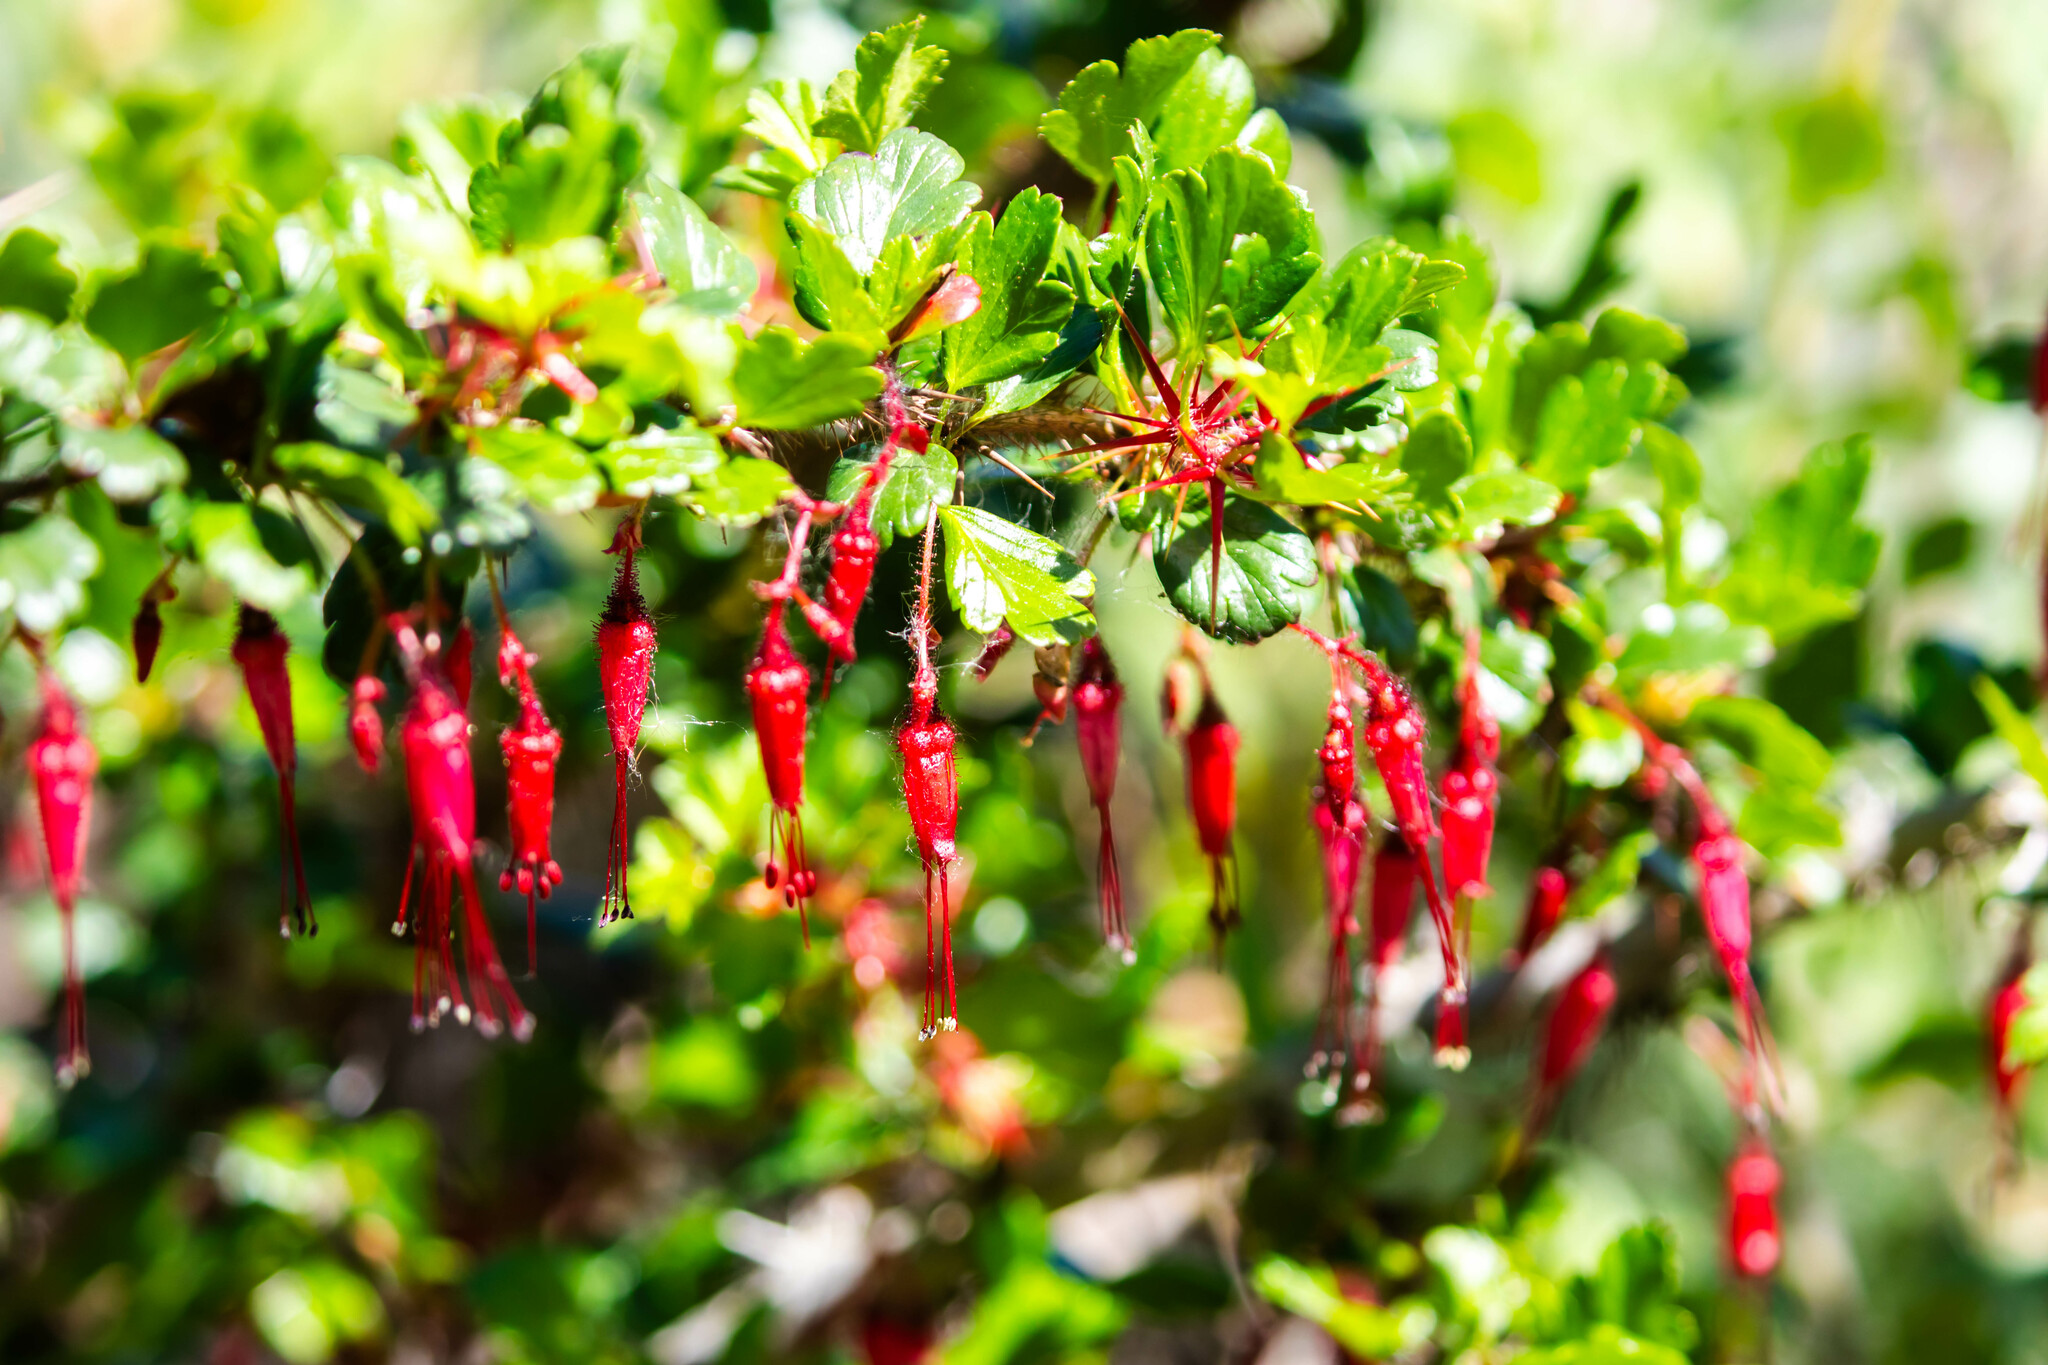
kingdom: Plantae
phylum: Tracheophyta
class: Magnoliopsida
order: Saxifragales
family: Grossulariaceae
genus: Ribes
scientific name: Ribes speciosum
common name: Fuchsia-flower gooseberry
